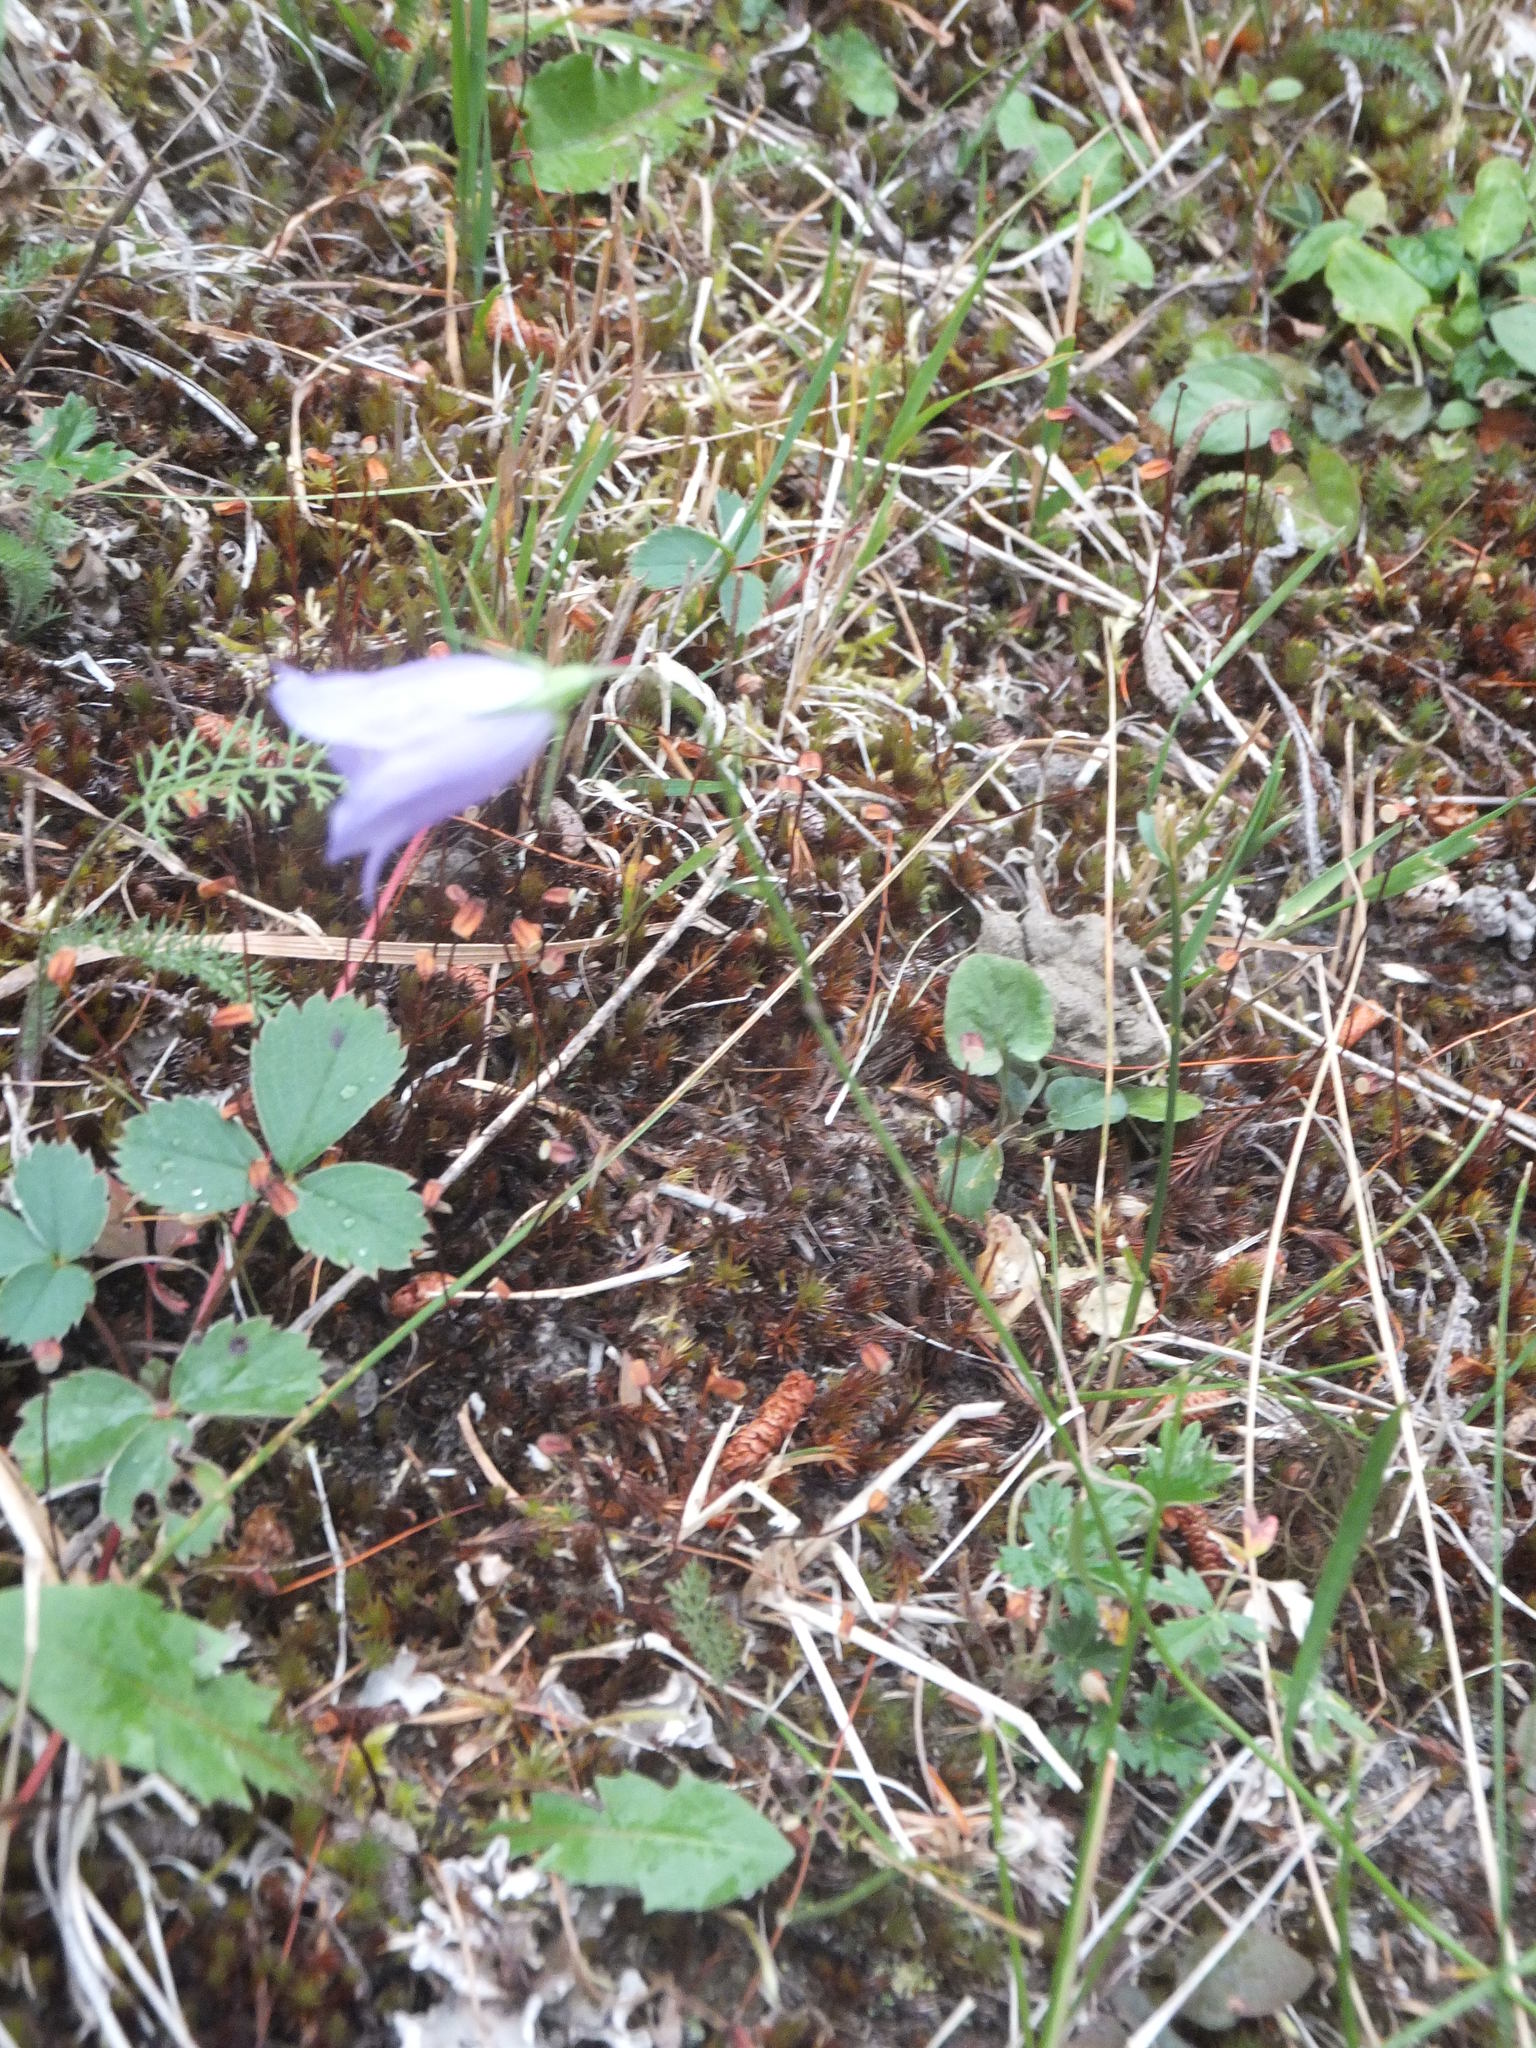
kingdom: Plantae
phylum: Tracheophyta
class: Magnoliopsida
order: Asterales
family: Campanulaceae
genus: Campanula
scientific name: Campanula alaskana
